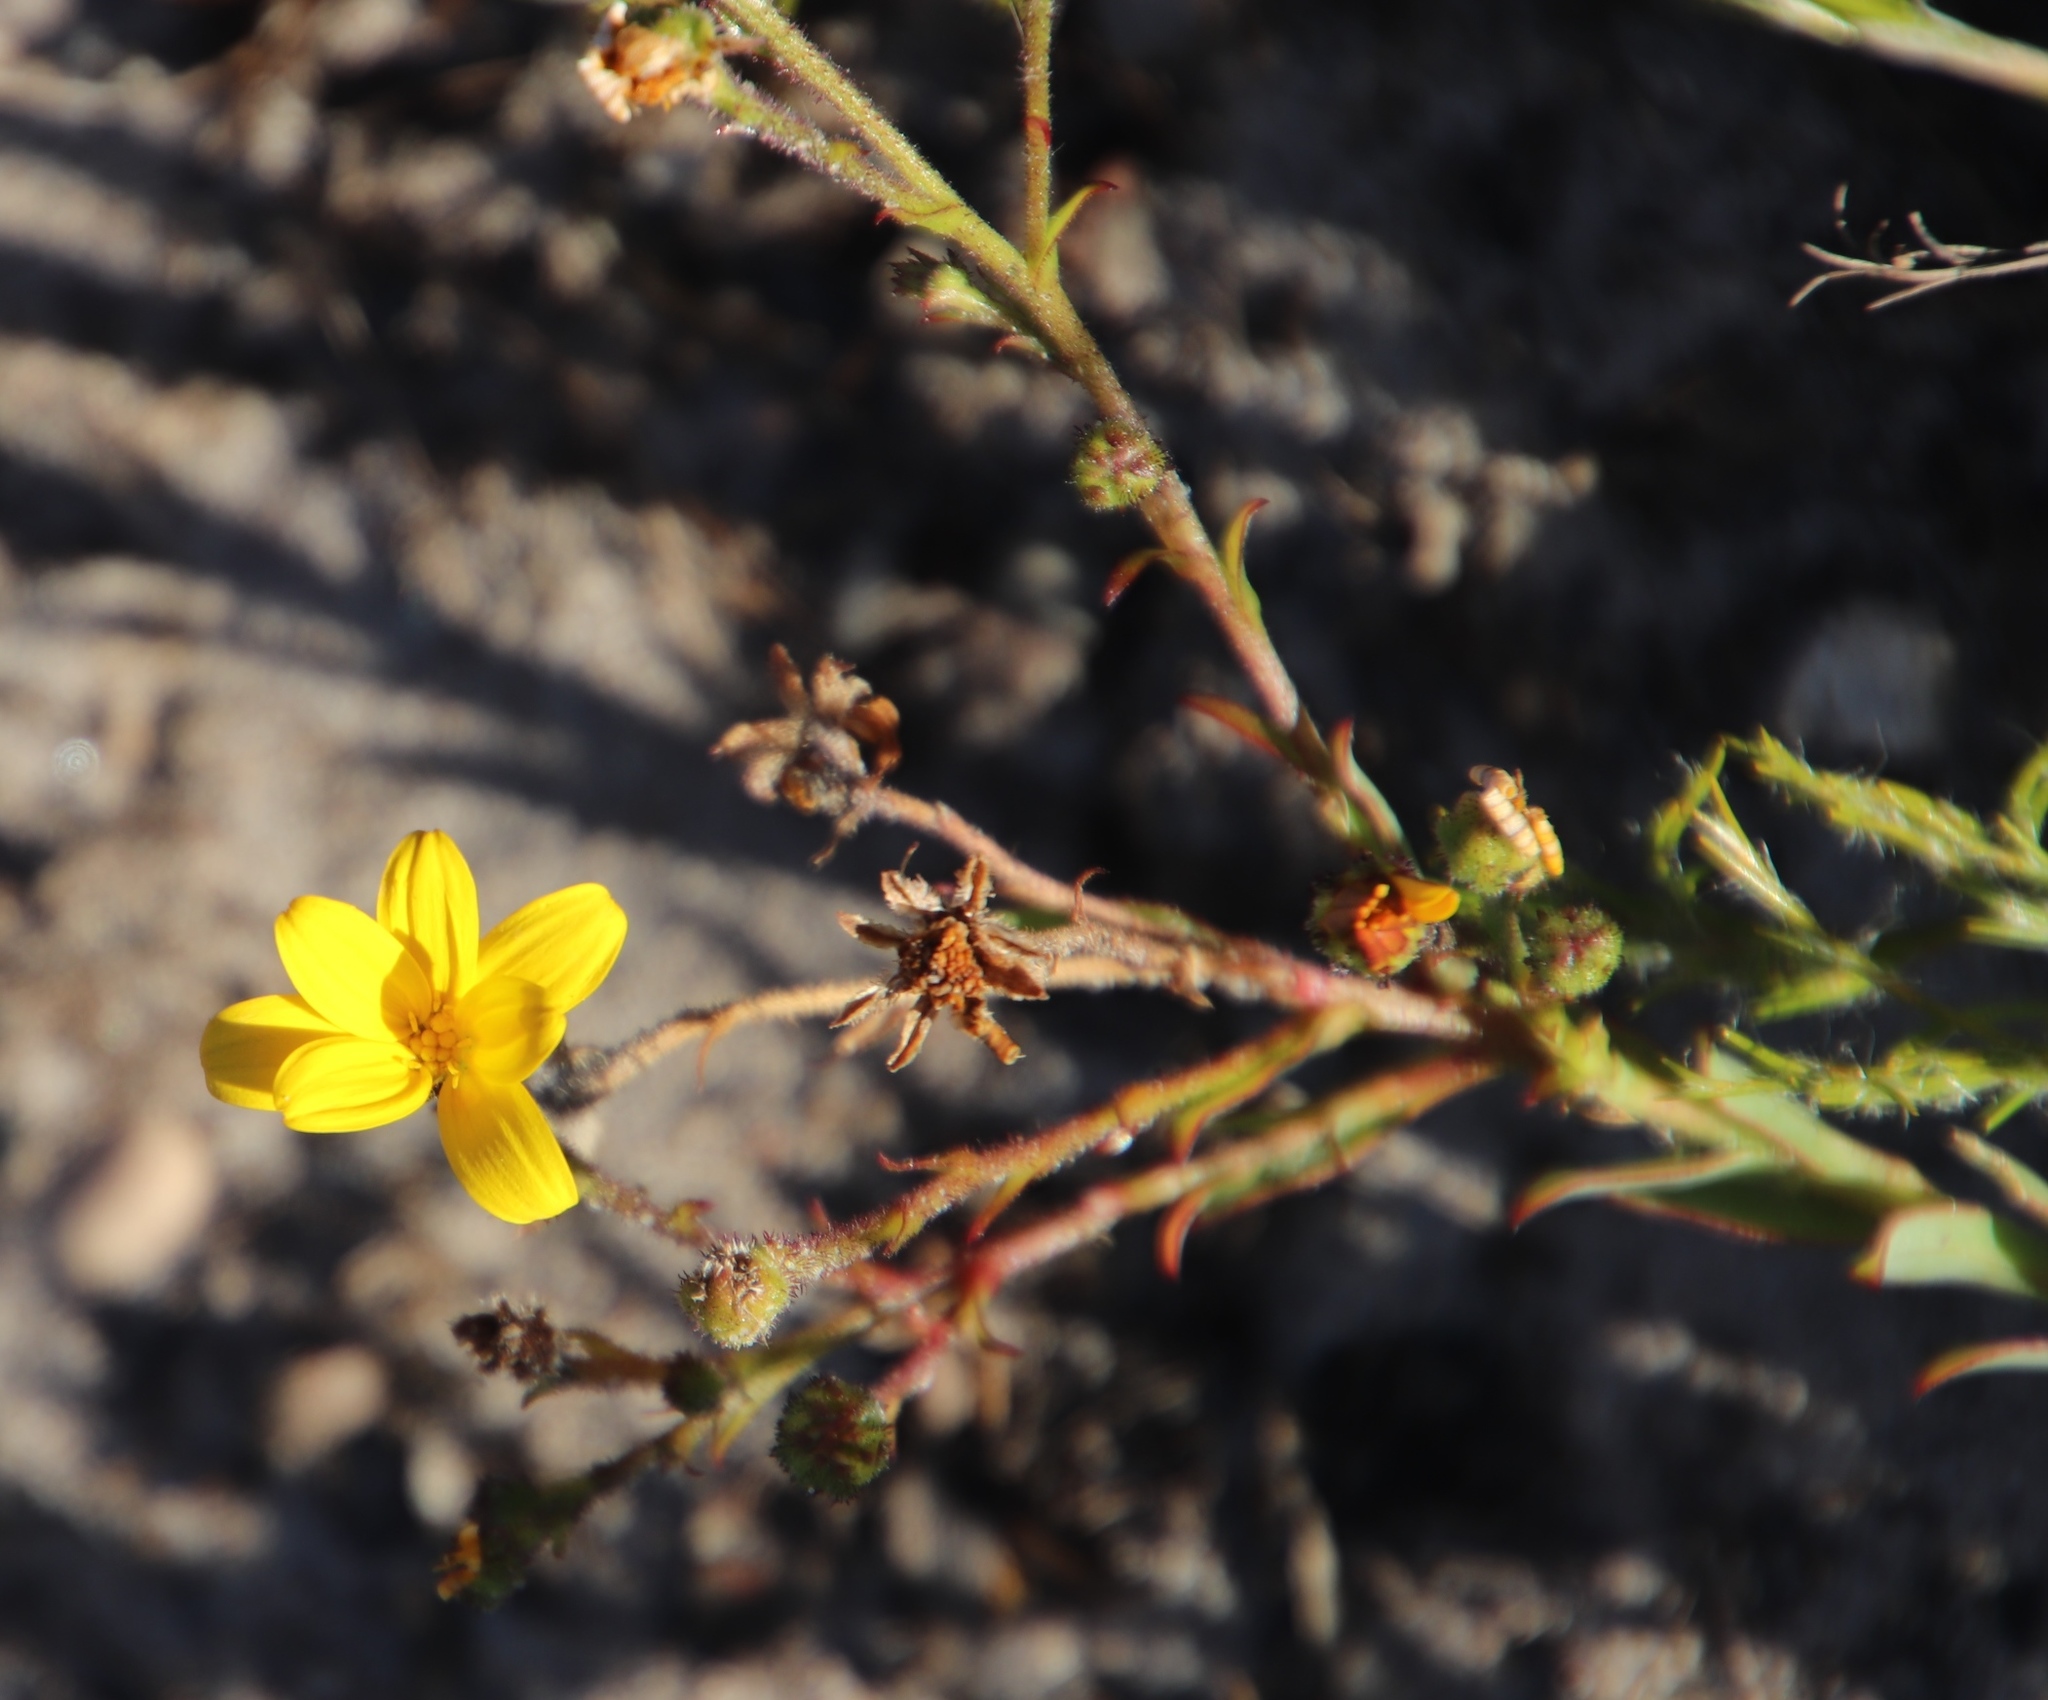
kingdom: Plantae
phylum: Tracheophyta
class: Magnoliopsida
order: Asterales
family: Asteraceae
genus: Osteospermum
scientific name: Osteospermum polygaloides
